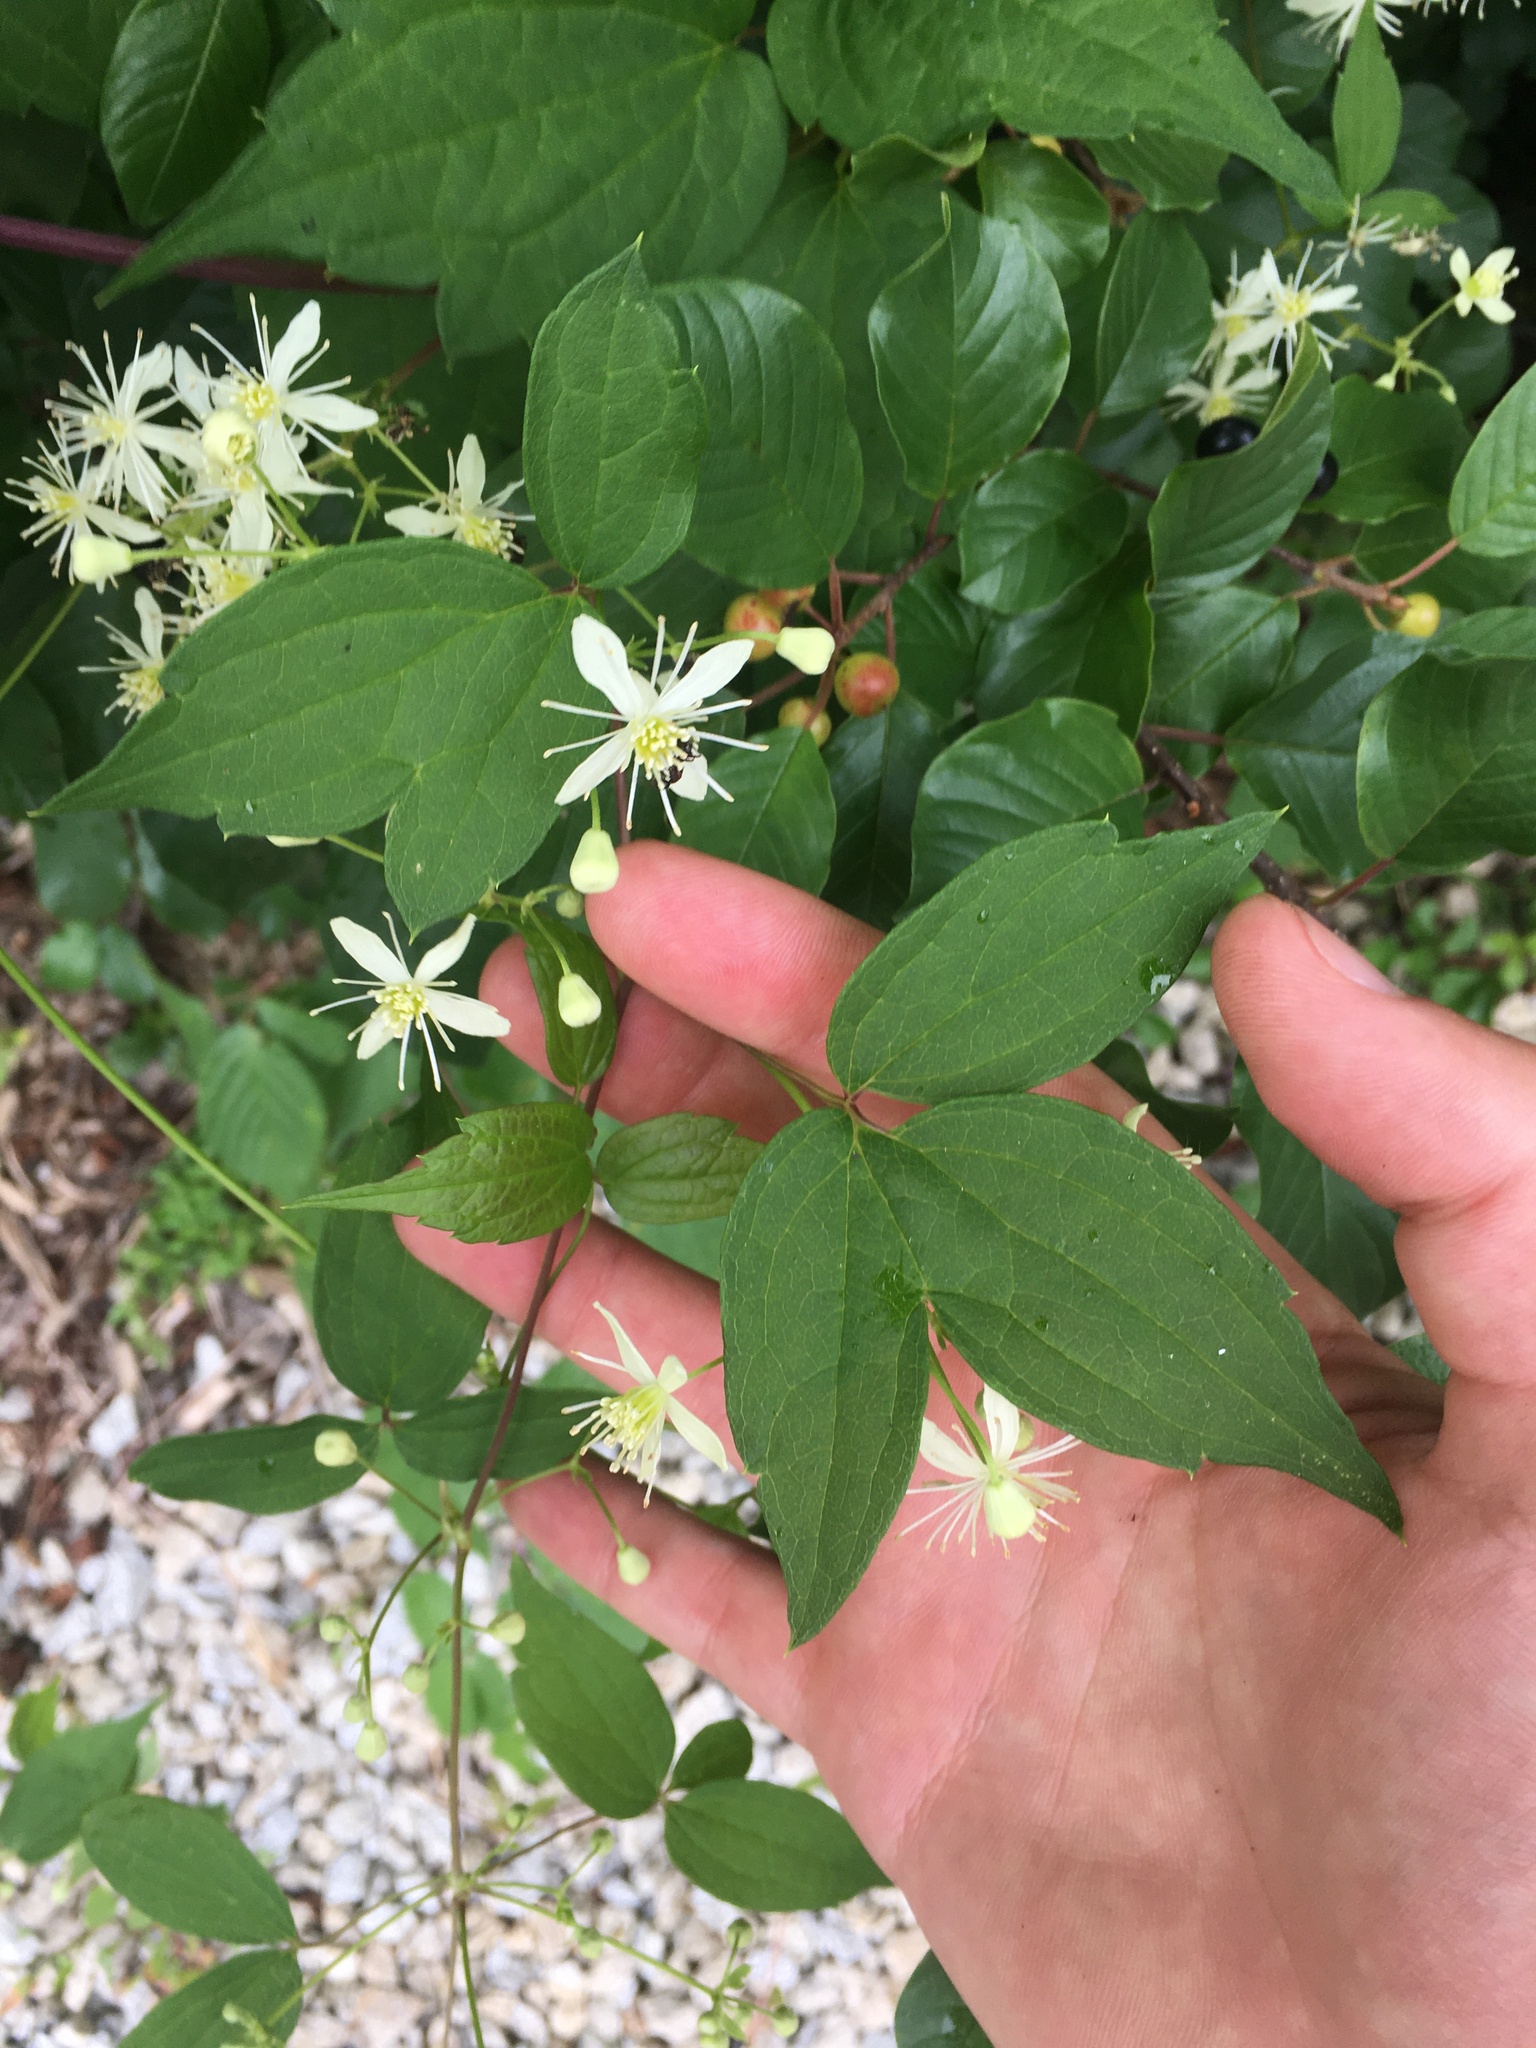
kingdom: Plantae
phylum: Tracheophyta
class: Magnoliopsida
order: Ranunculales
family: Ranunculaceae
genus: Clematis
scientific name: Clematis virginiana
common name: Virgin's-bower
